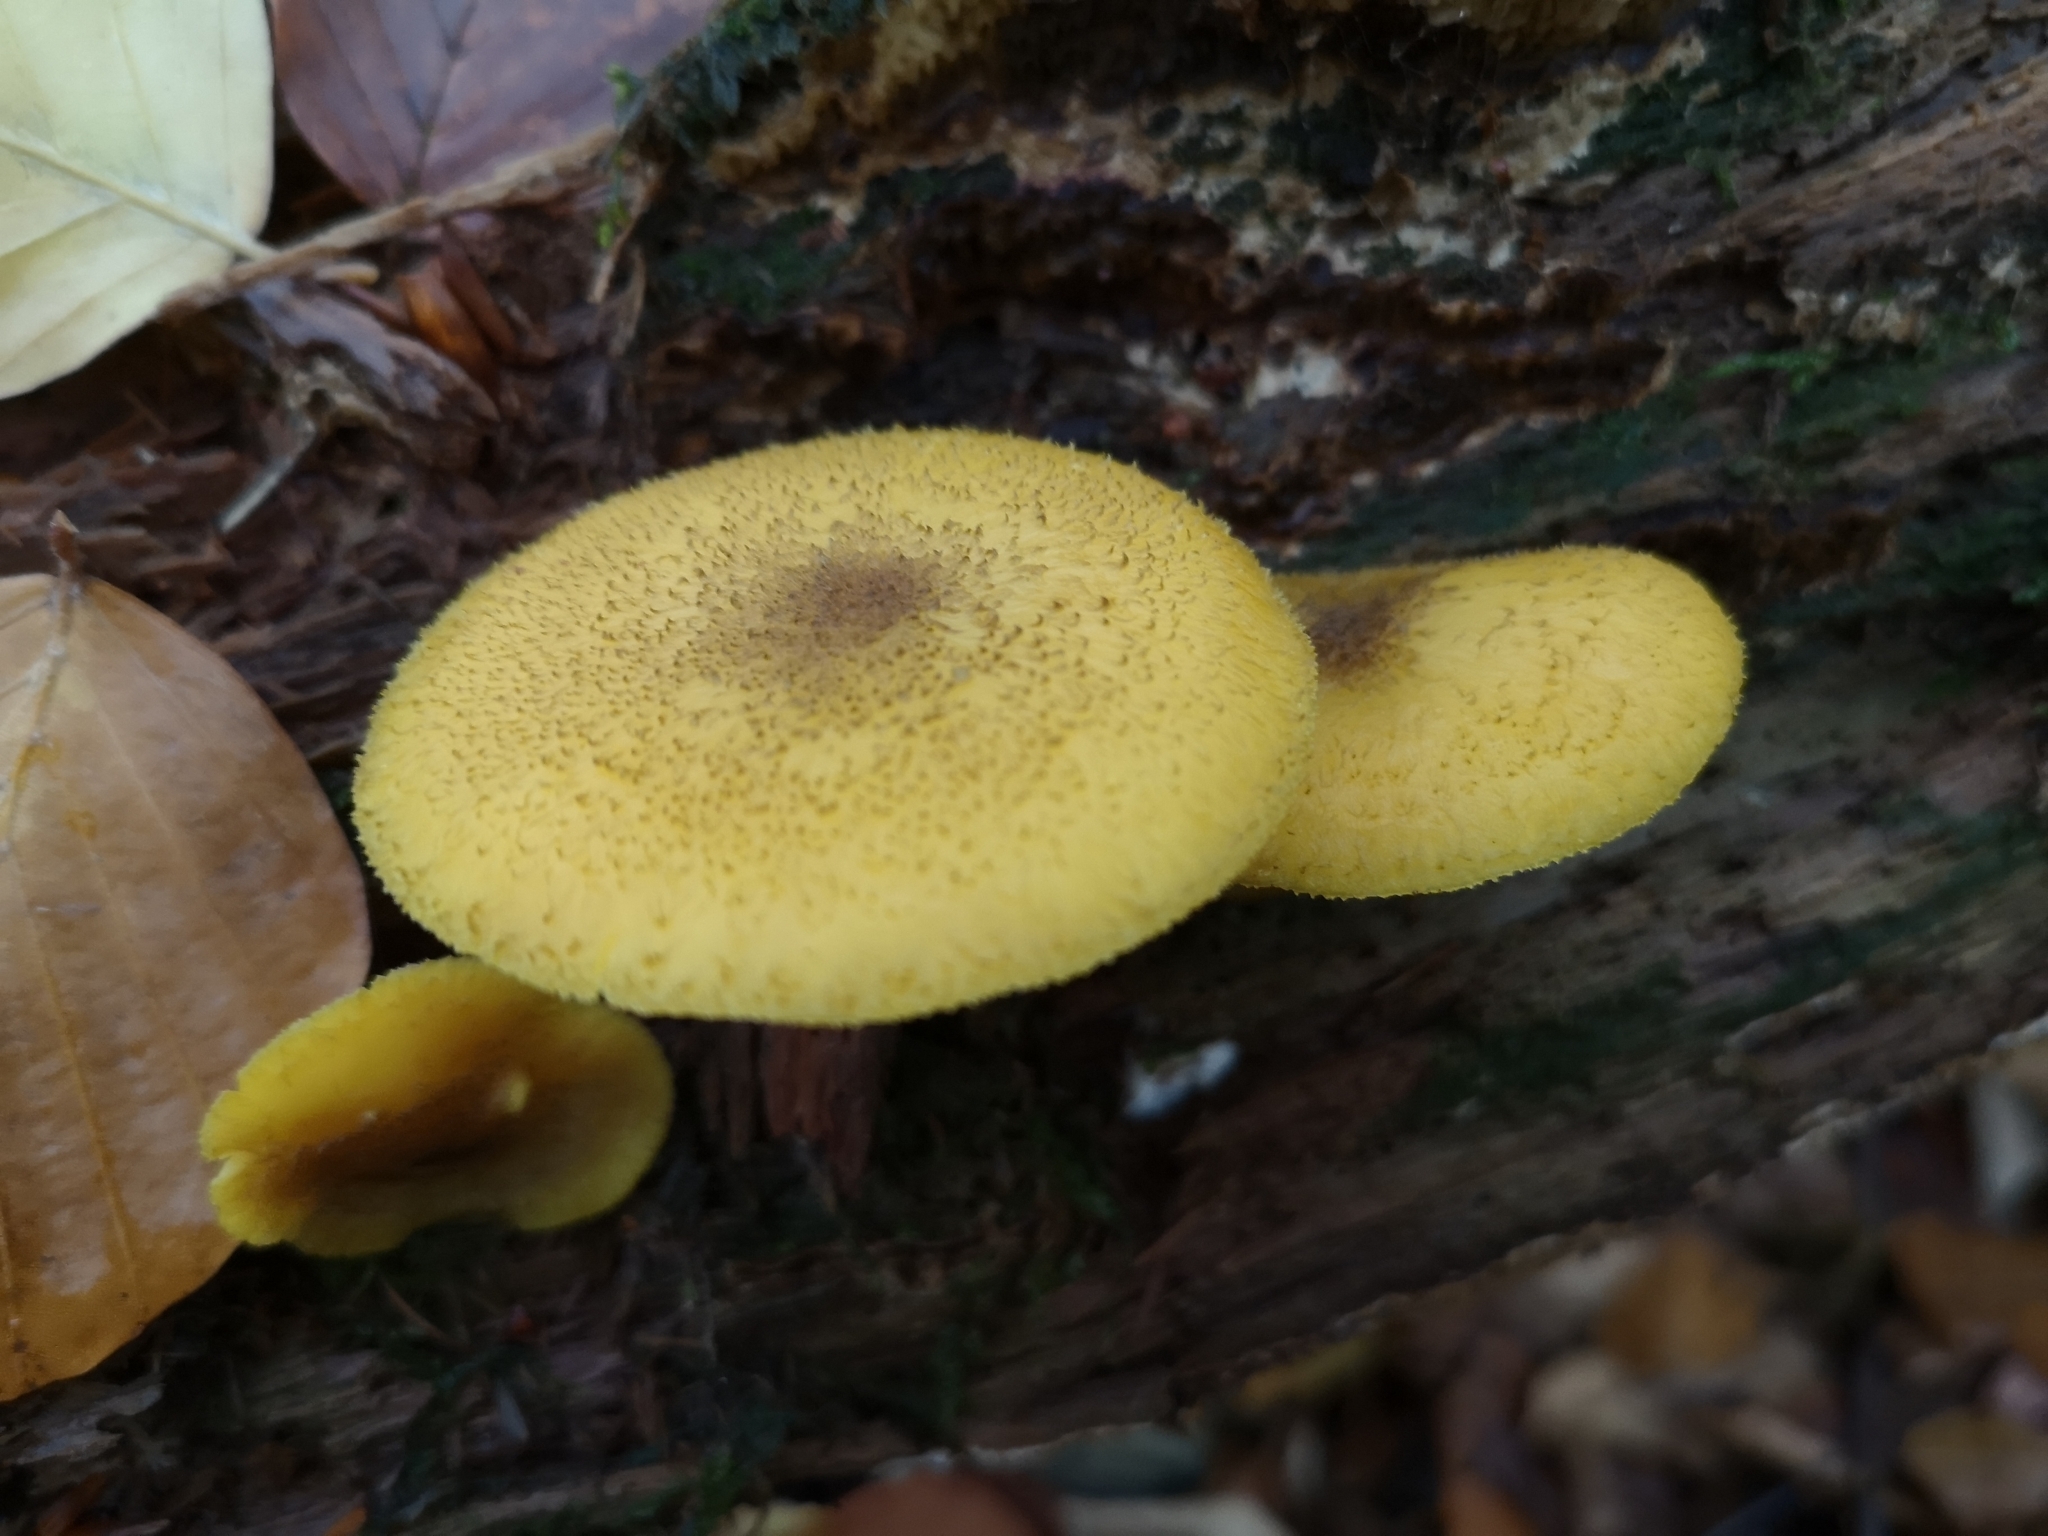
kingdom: Fungi
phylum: Basidiomycota
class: Agaricomycetes
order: Agaricales
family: Tricholomataceae
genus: Tricholomopsis
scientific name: Tricholomopsis decora
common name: Prunes and custard
